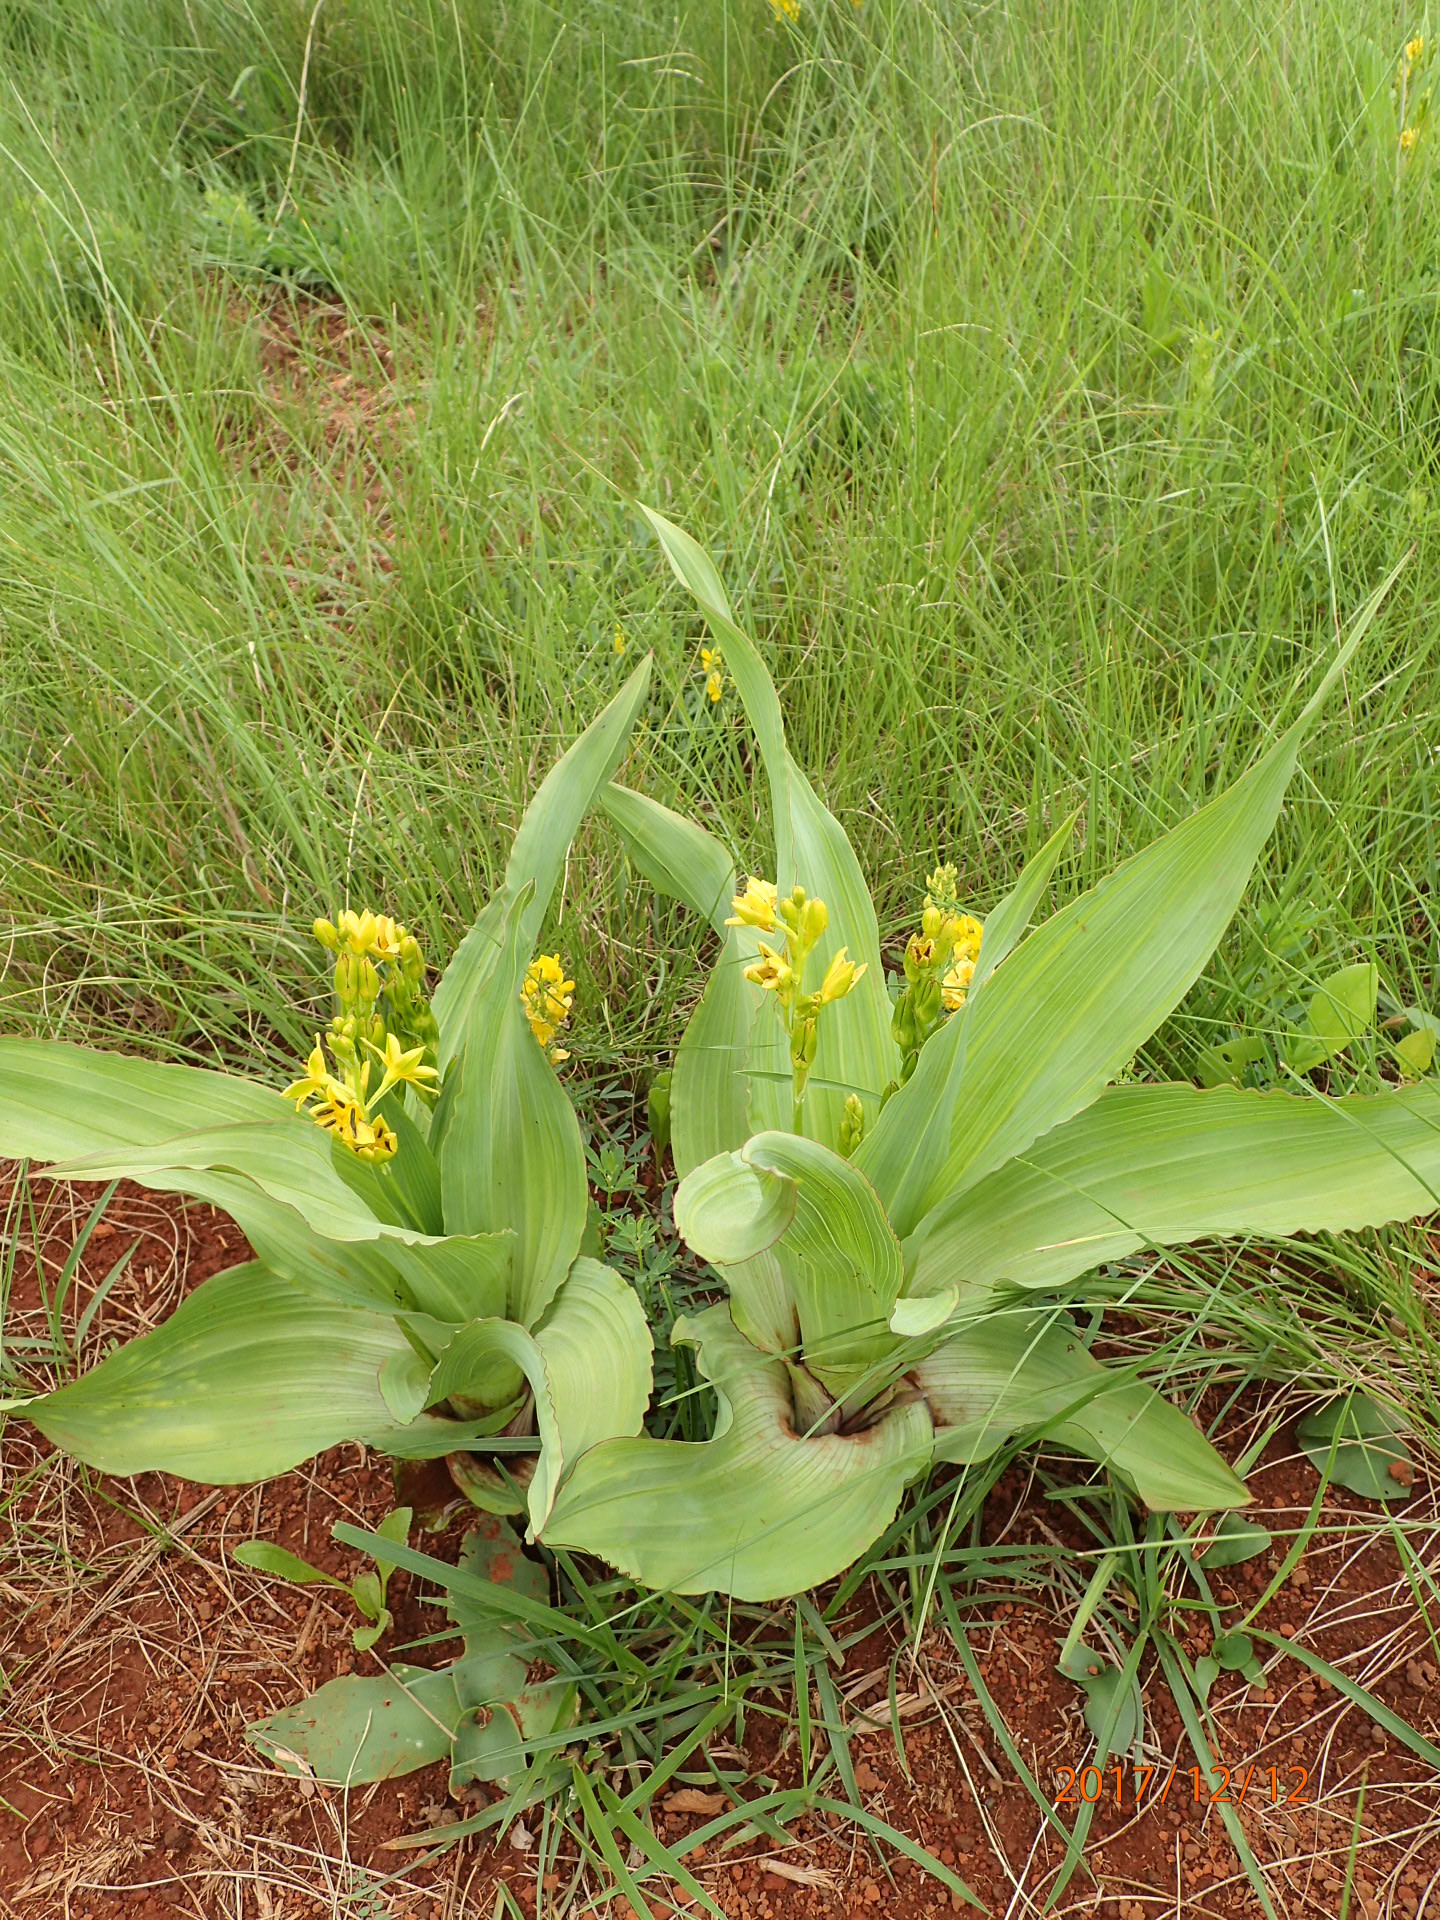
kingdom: Plantae
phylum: Tracheophyta
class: Liliopsida
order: Asparagales
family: Hypoxidaceae
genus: Hypoxis
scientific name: Hypoxis colchicifolia
